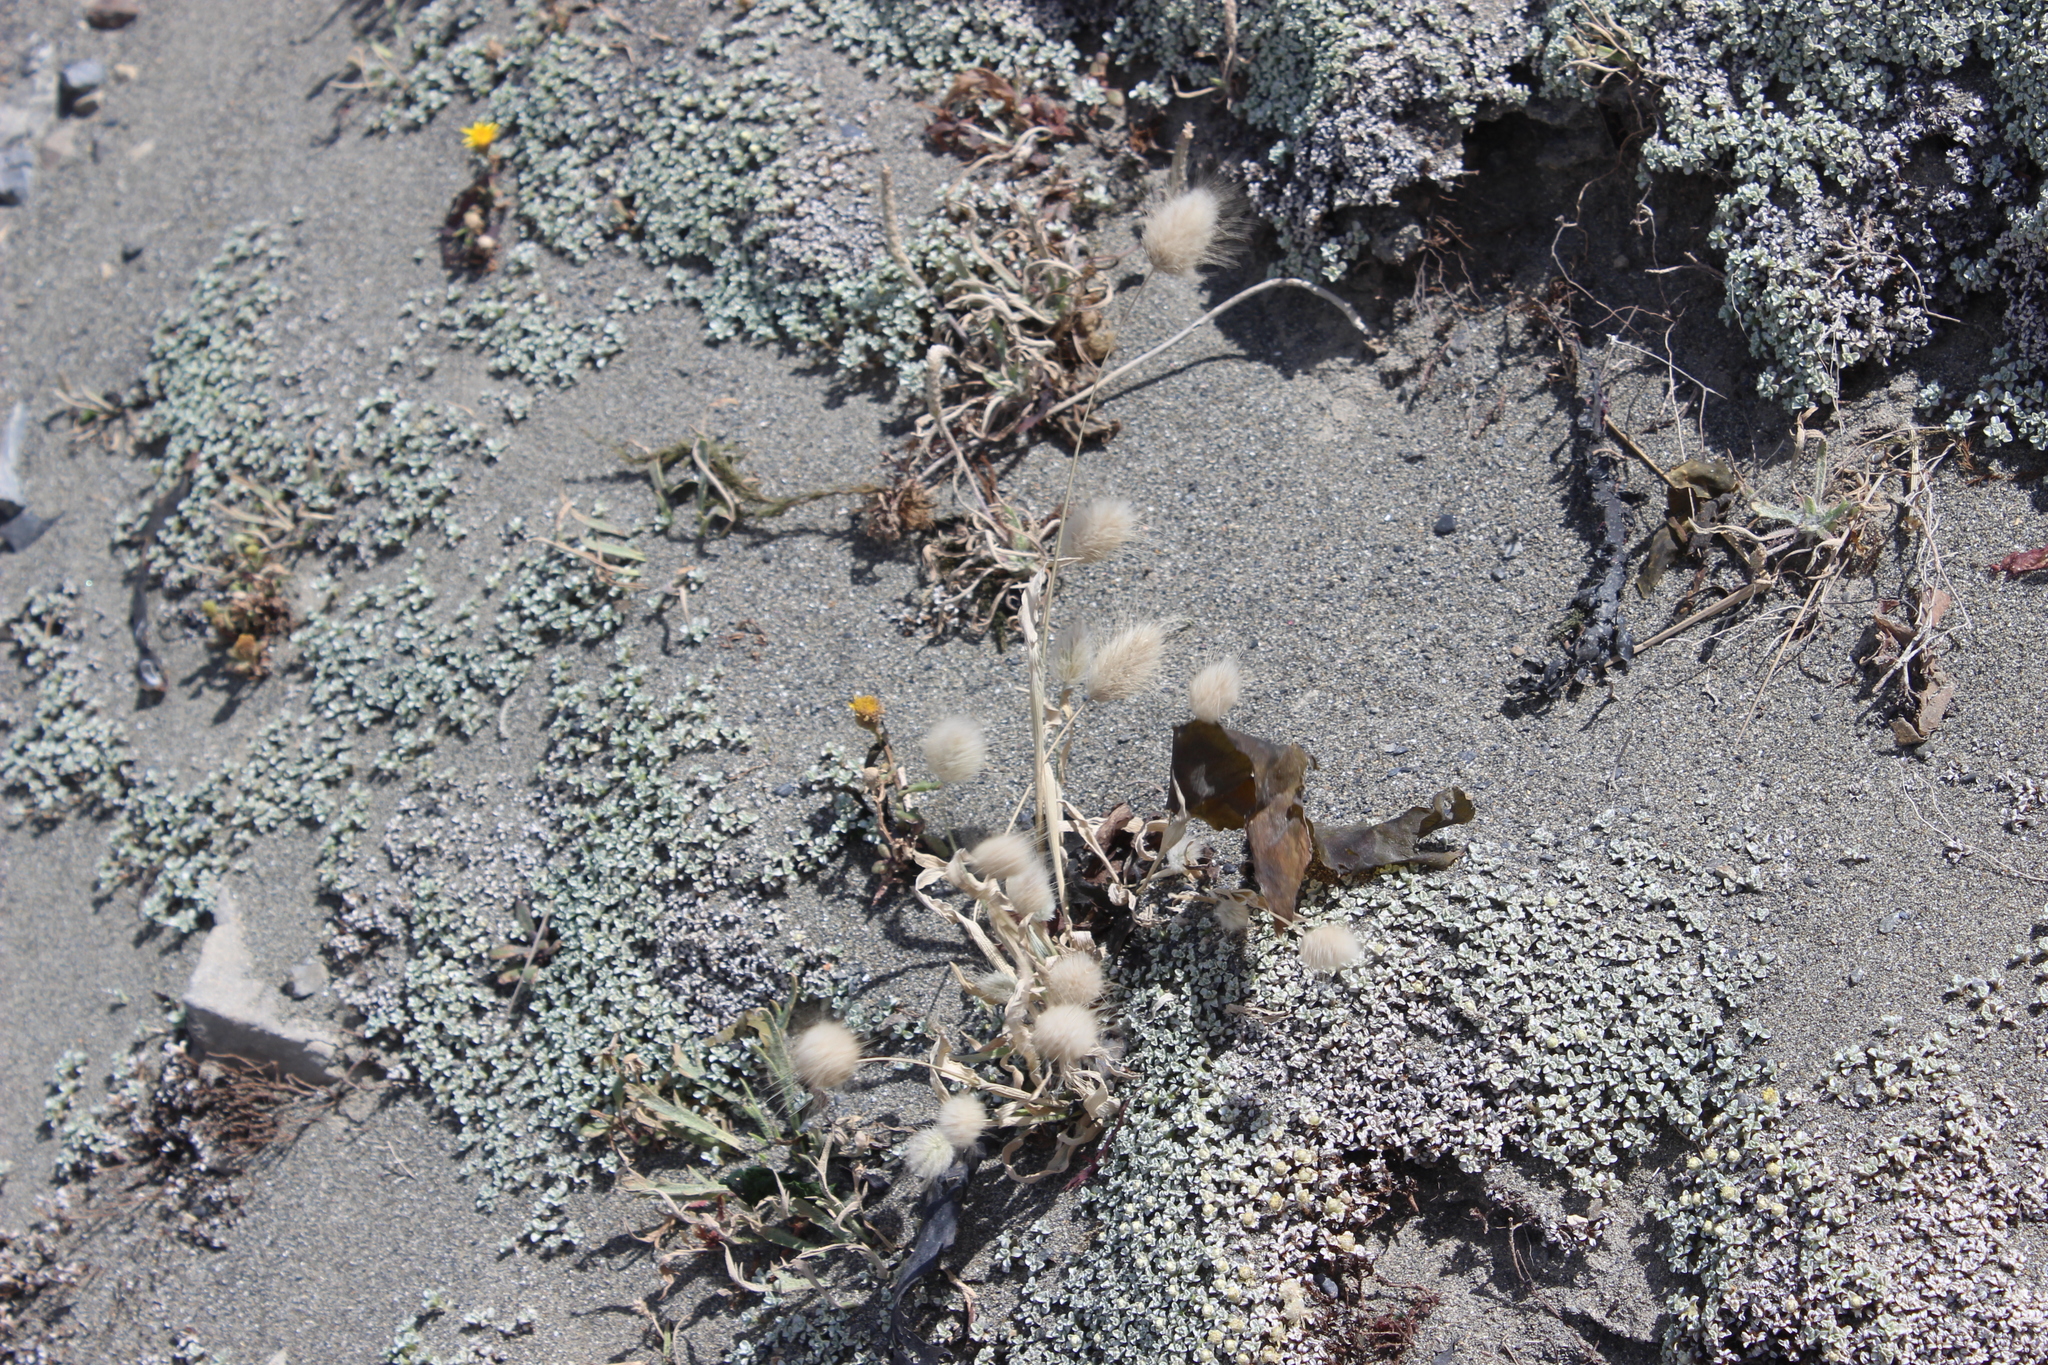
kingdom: Plantae
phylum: Tracheophyta
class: Liliopsida
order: Poales
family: Poaceae
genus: Lagurus
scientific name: Lagurus ovatus
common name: Hare's-tail
